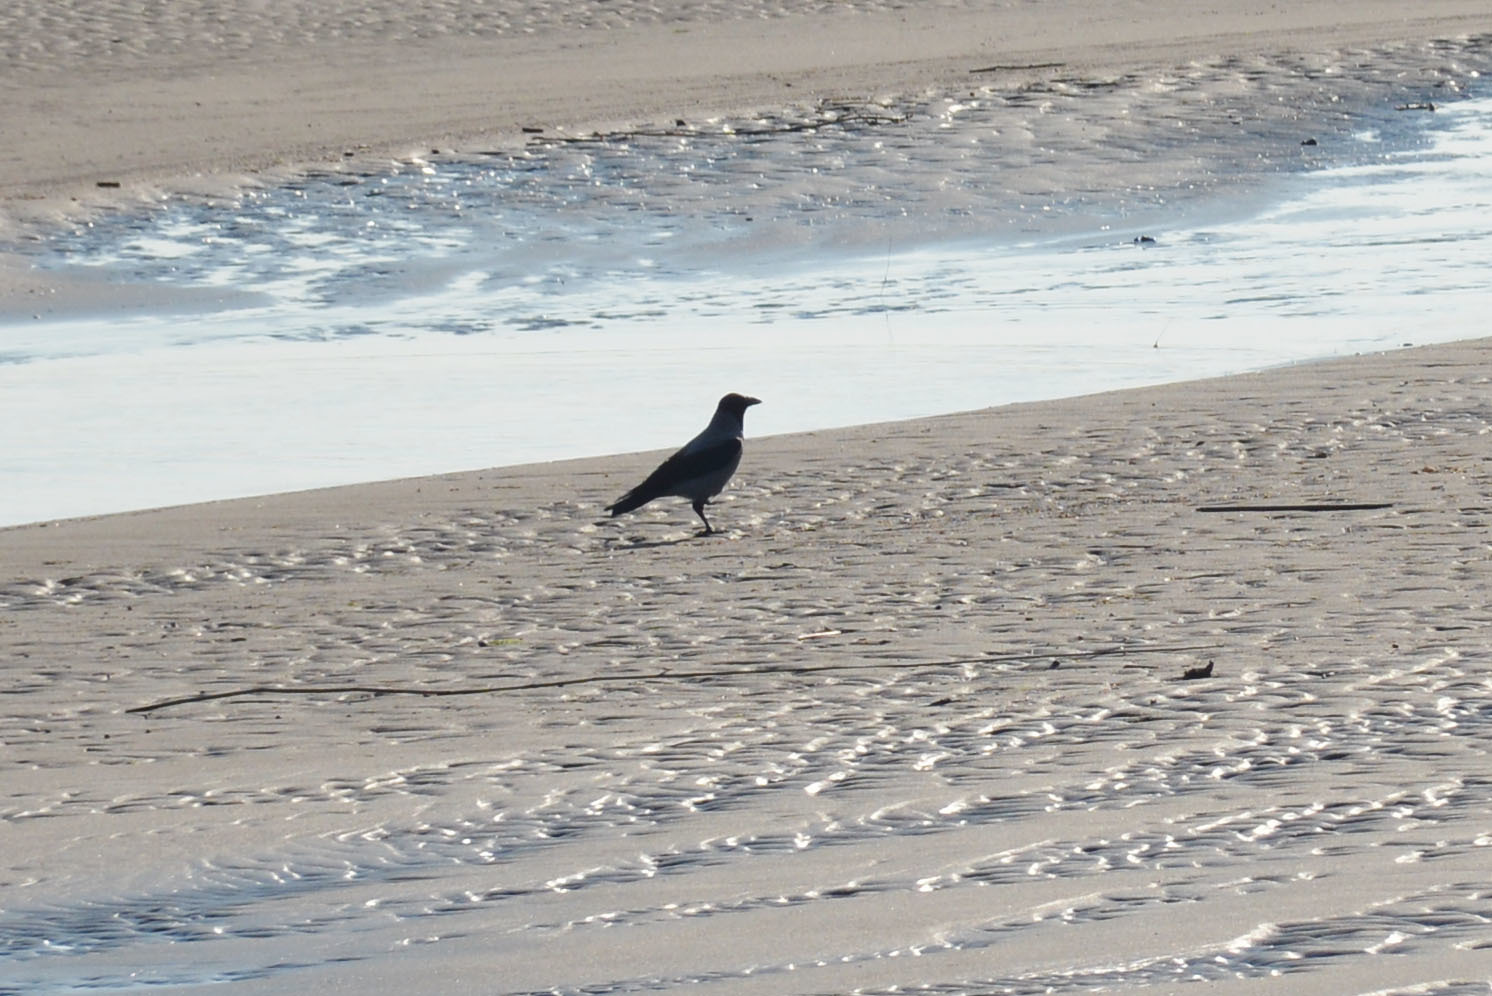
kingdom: Animalia
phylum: Chordata
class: Aves
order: Passeriformes
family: Corvidae
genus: Corvus
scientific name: Corvus cornix
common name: Hooded crow
